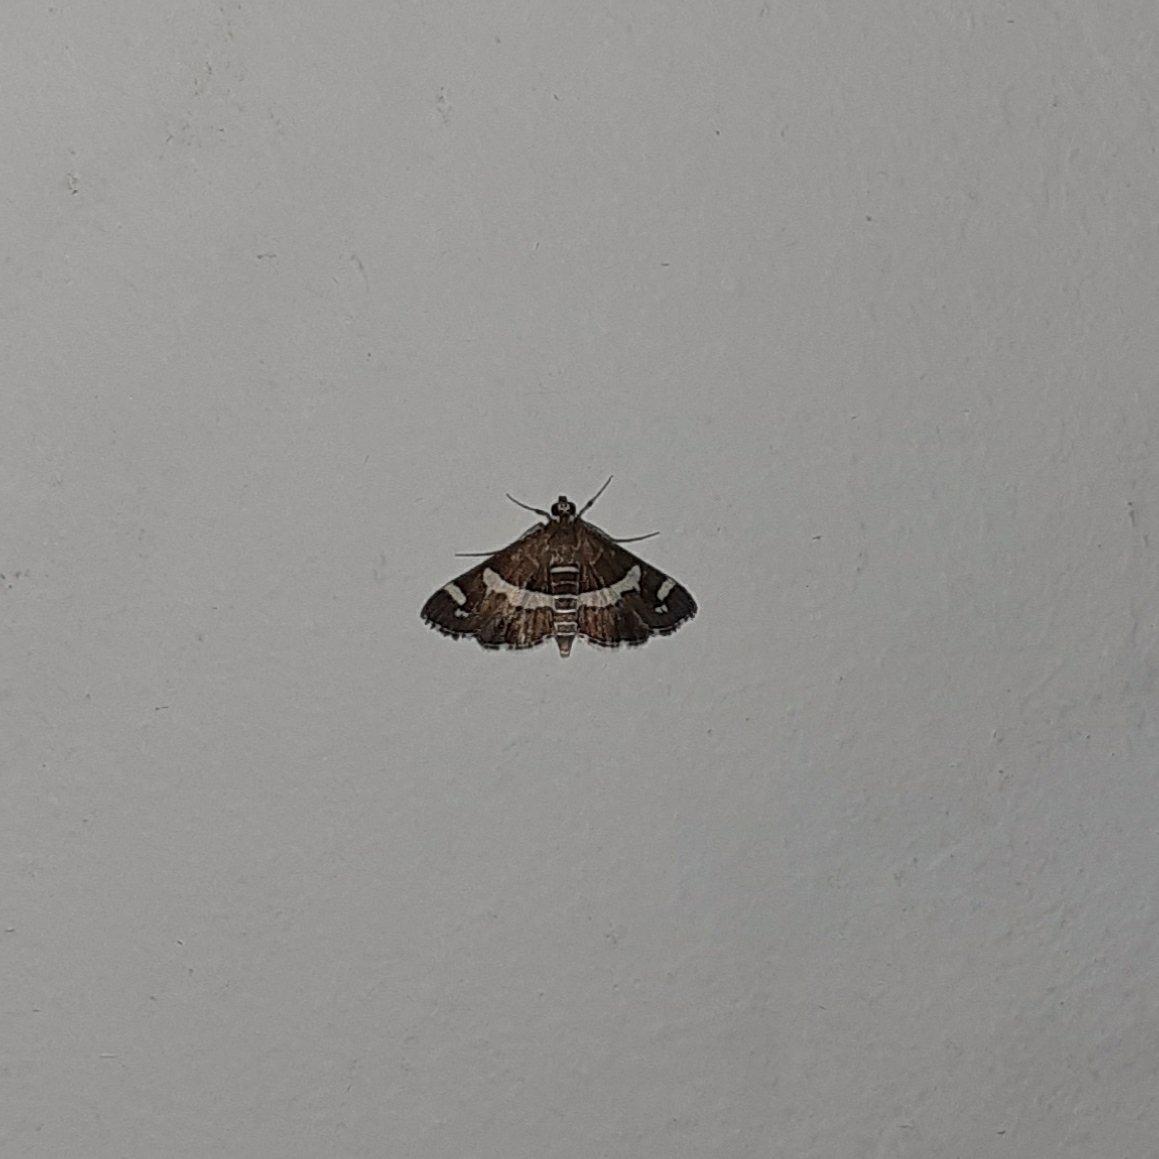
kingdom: Animalia
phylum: Arthropoda
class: Insecta
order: Lepidoptera
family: Crambidae
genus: Spoladea
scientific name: Spoladea recurvalis
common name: Beet webworm moth
